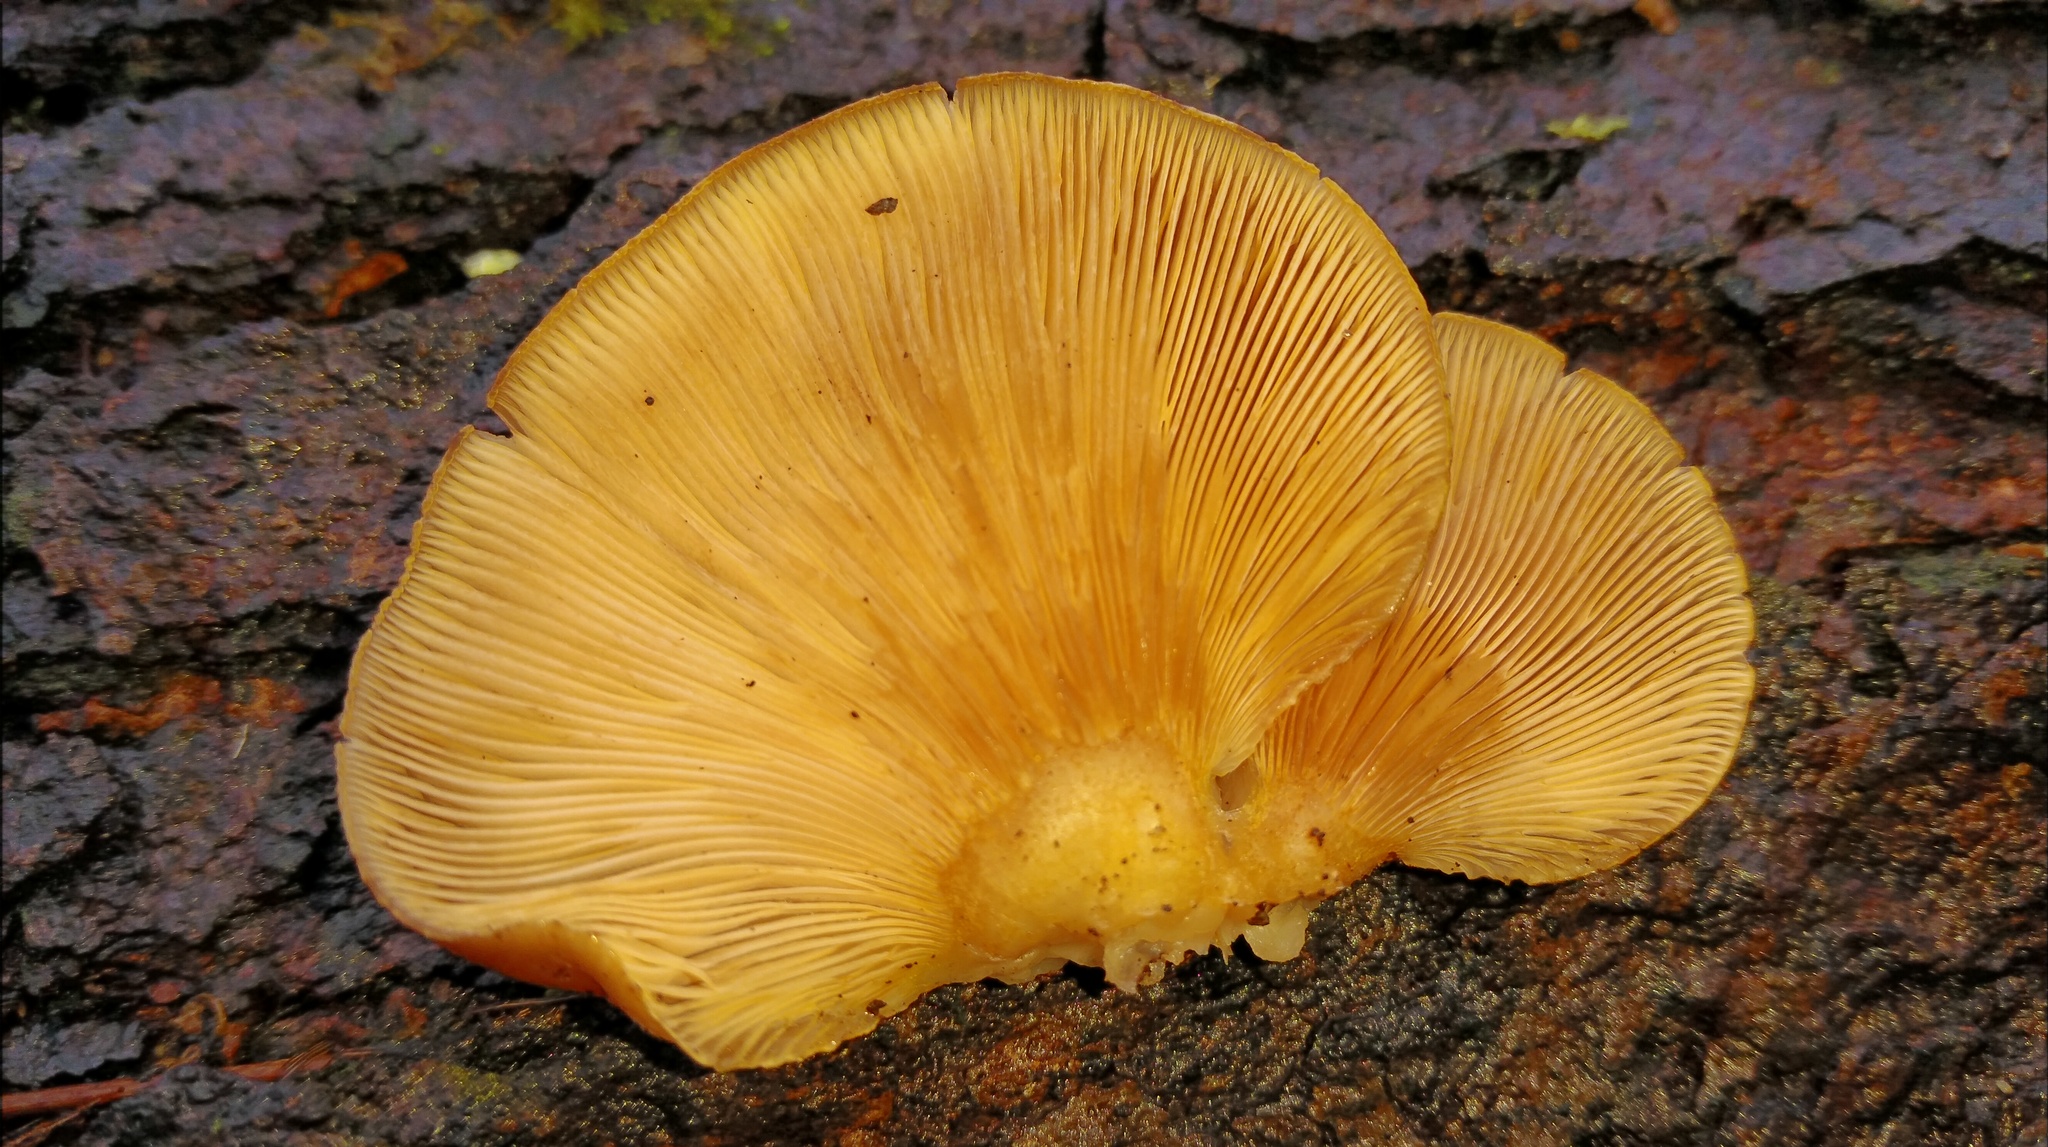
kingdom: Fungi
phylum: Basidiomycota
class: Agaricomycetes
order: Agaricales
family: Sarcomyxaceae
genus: Sarcomyxa
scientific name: Sarcomyxa serotina
